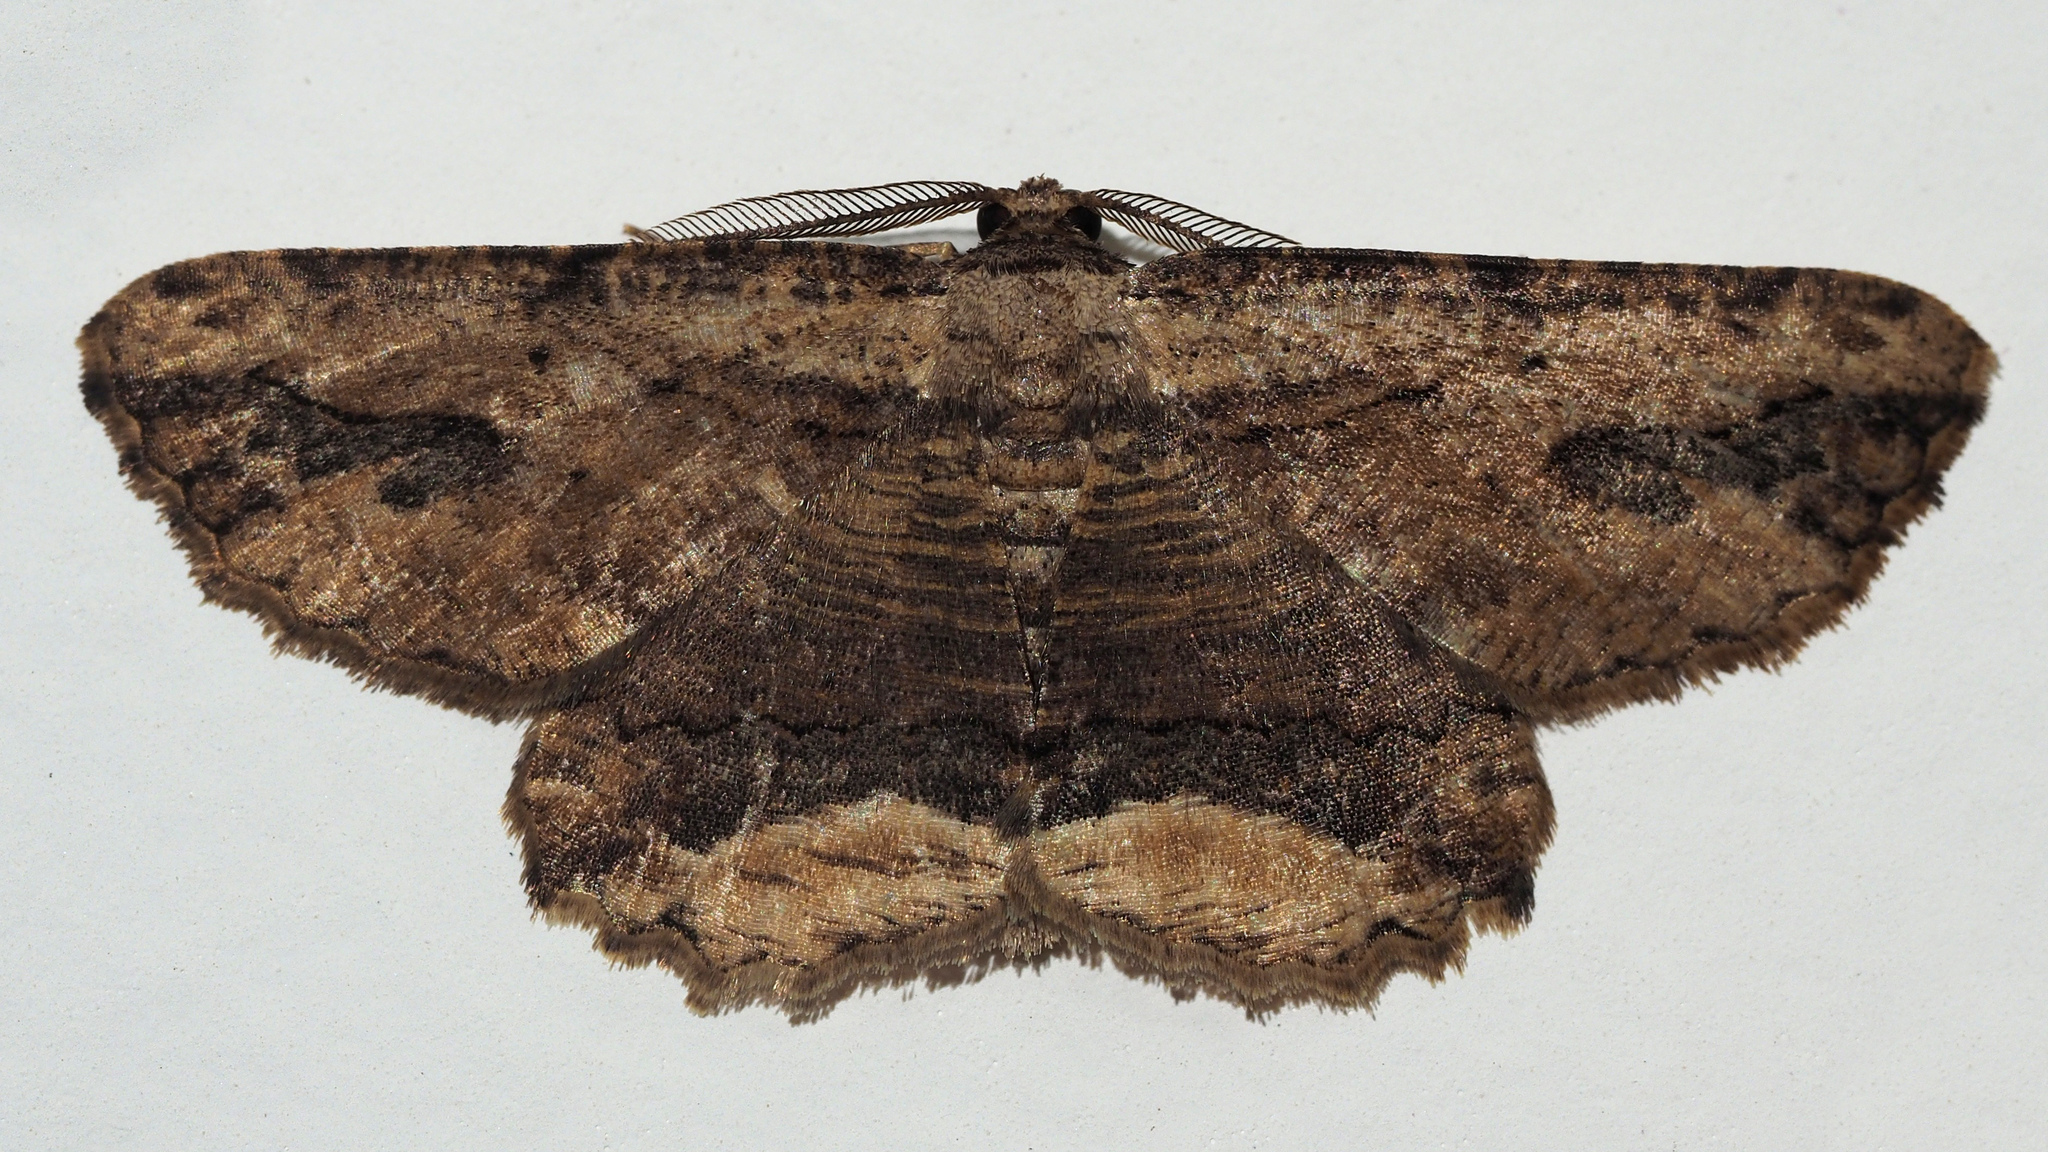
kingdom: Animalia
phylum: Arthropoda
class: Insecta
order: Lepidoptera
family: Geometridae
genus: Menophra
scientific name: Menophra abruptaria
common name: Waved umber
